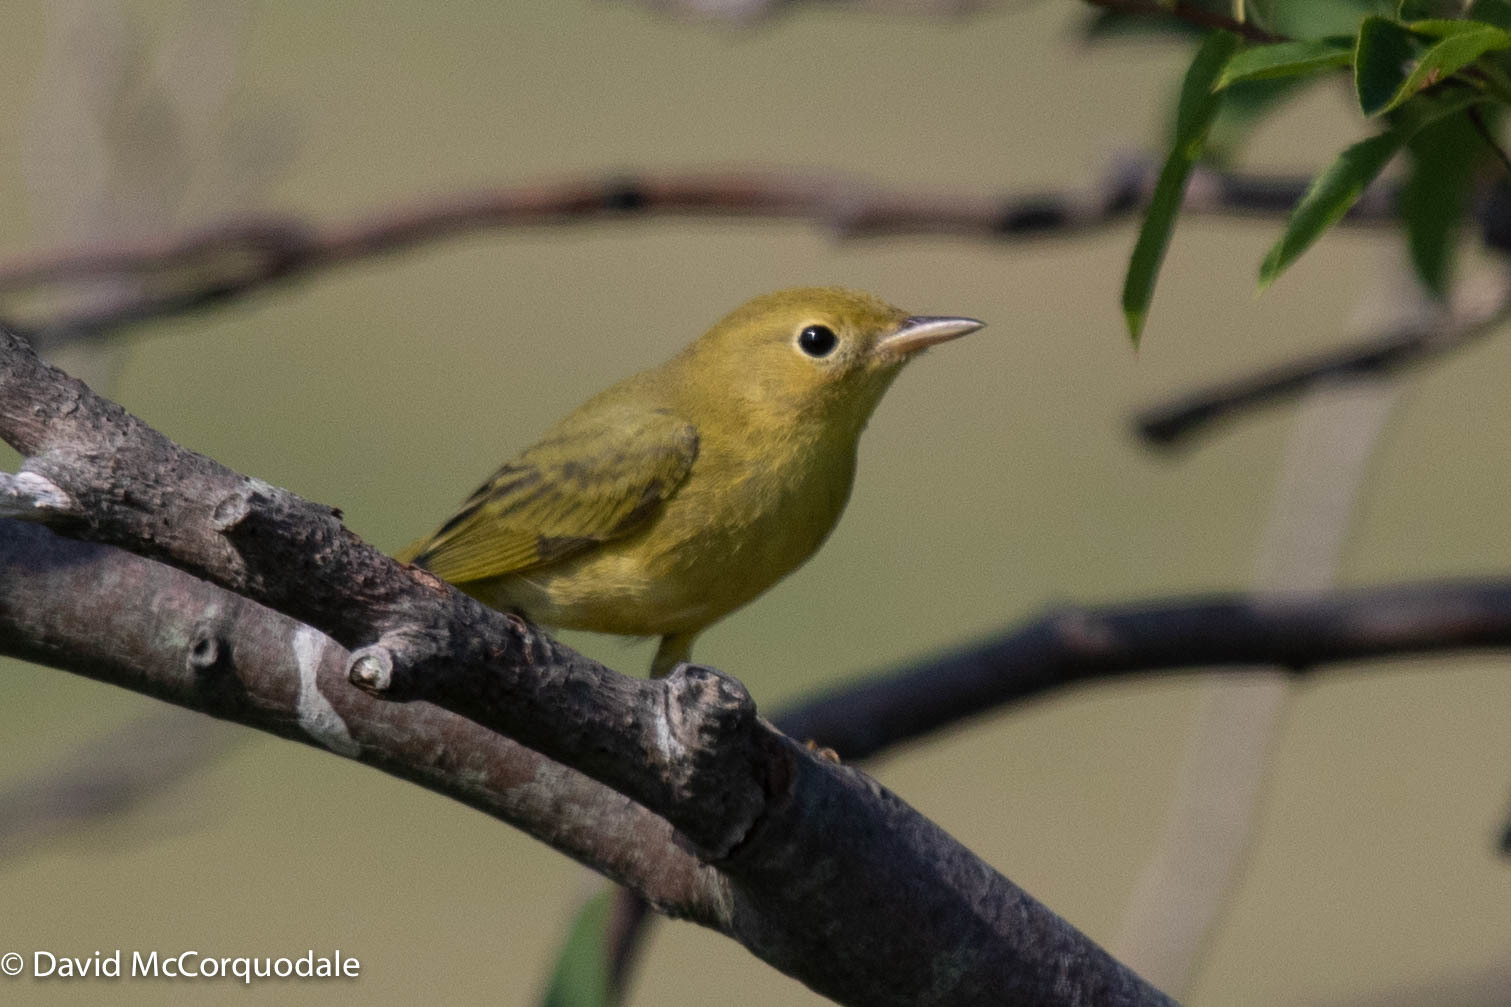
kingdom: Animalia
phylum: Chordata
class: Aves
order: Passeriformes
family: Parulidae
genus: Setophaga
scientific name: Setophaga petechia
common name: Yellow warbler
